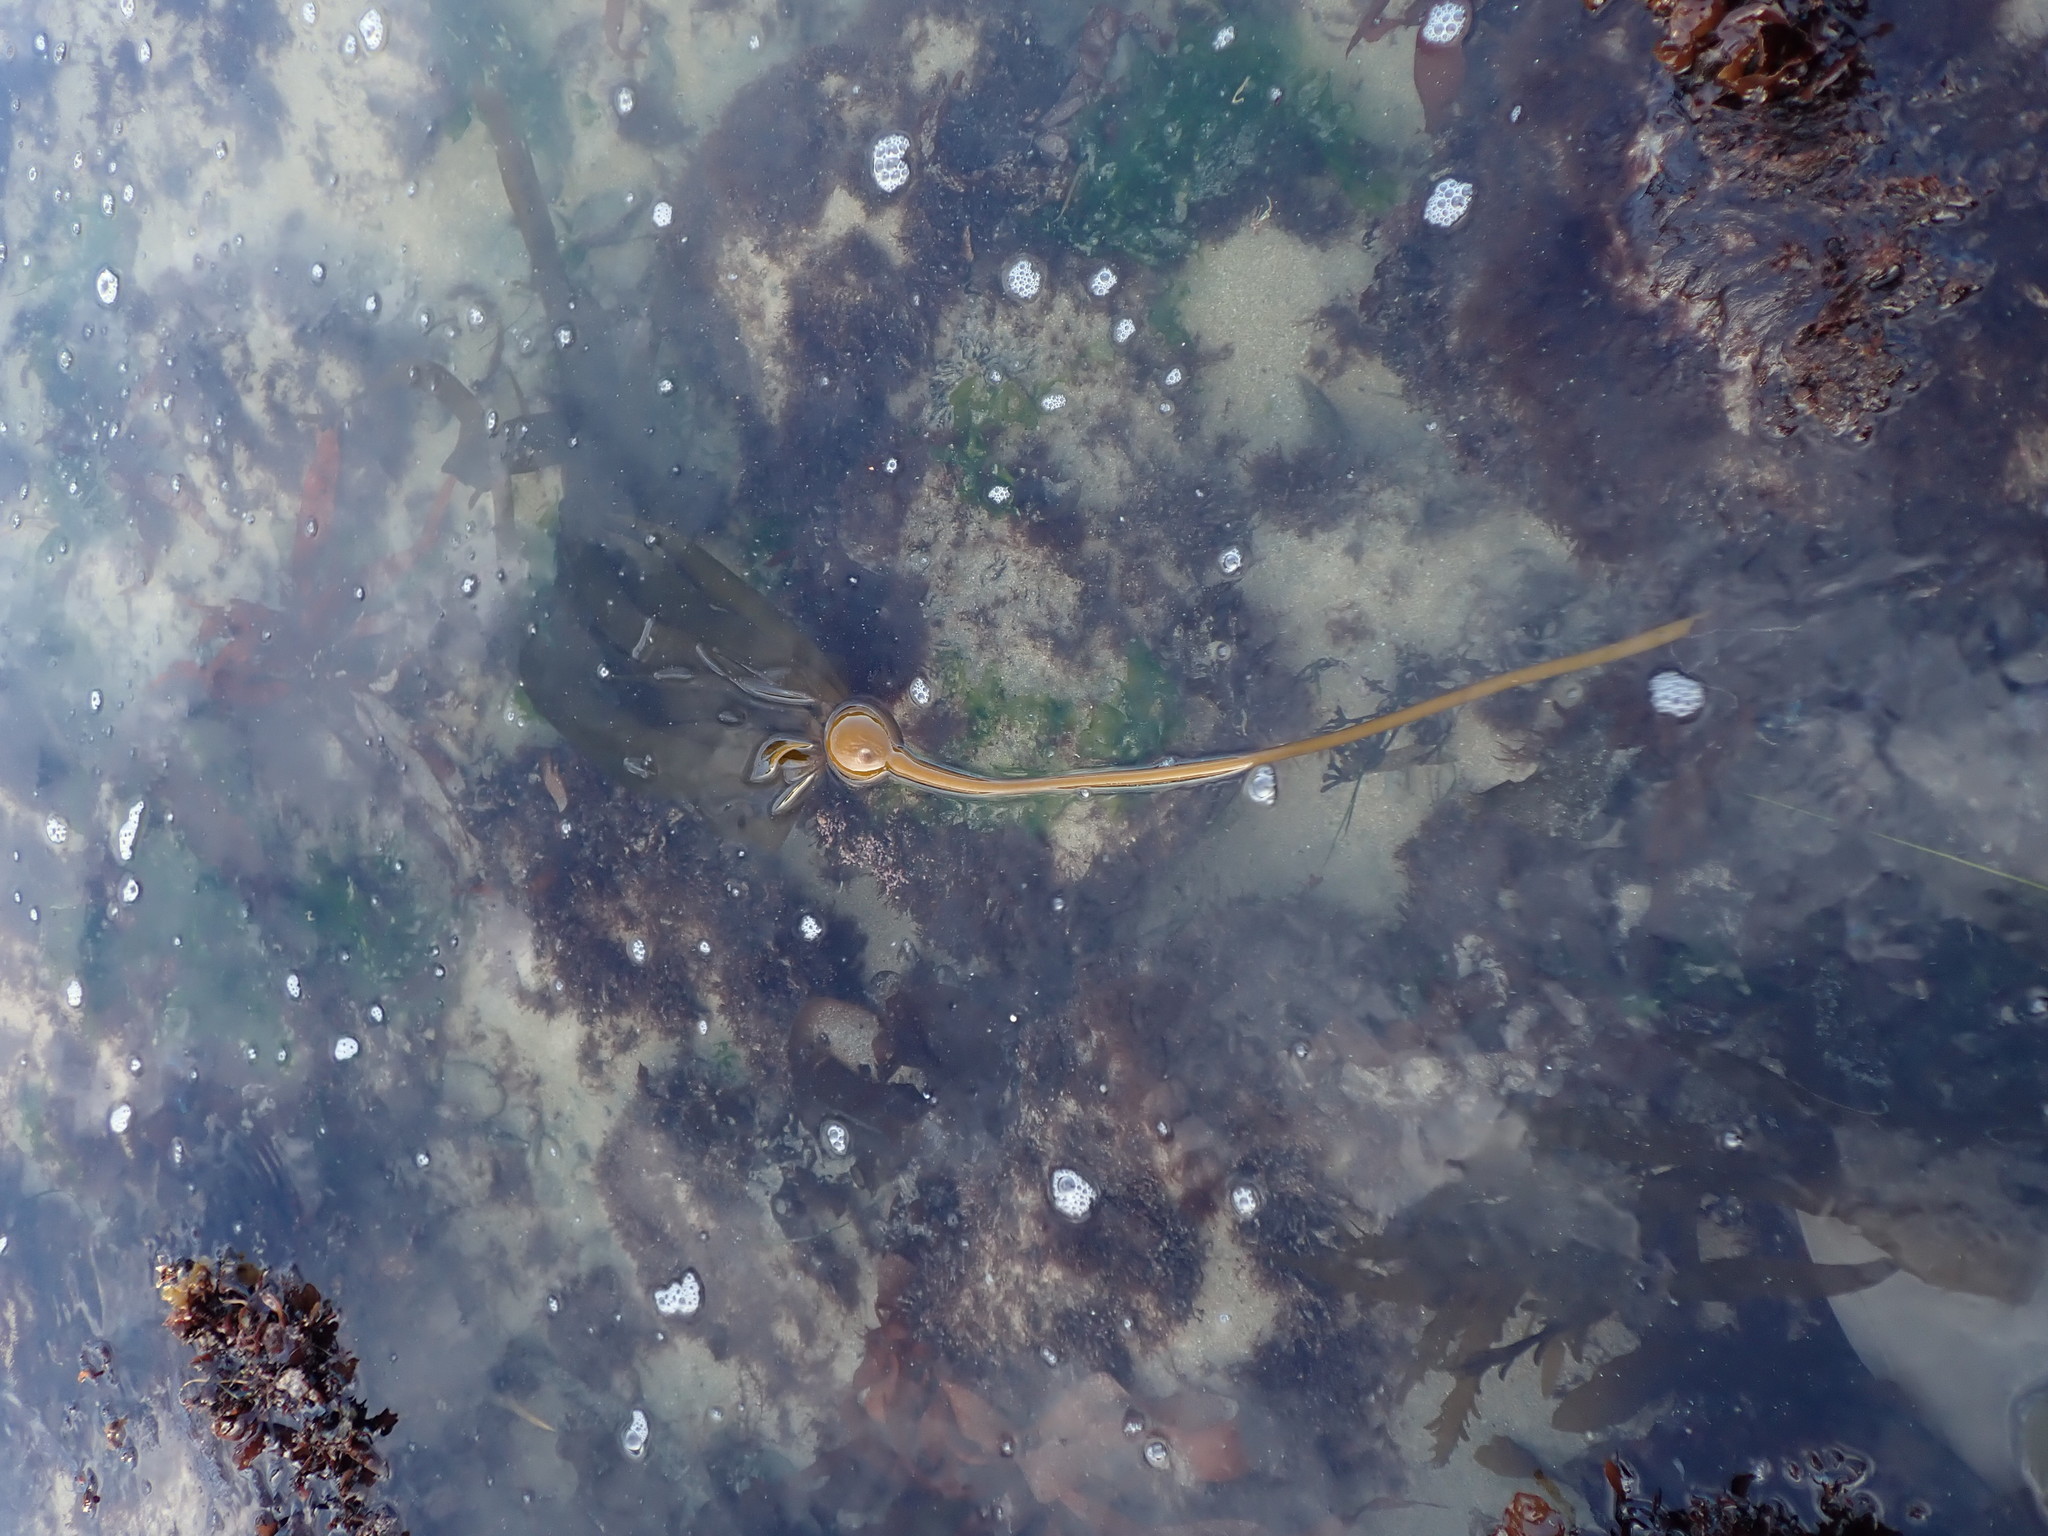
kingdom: Chromista
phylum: Ochrophyta
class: Phaeophyceae
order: Laminariales
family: Laminariaceae
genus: Nereocystis
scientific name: Nereocystis luetkeana
